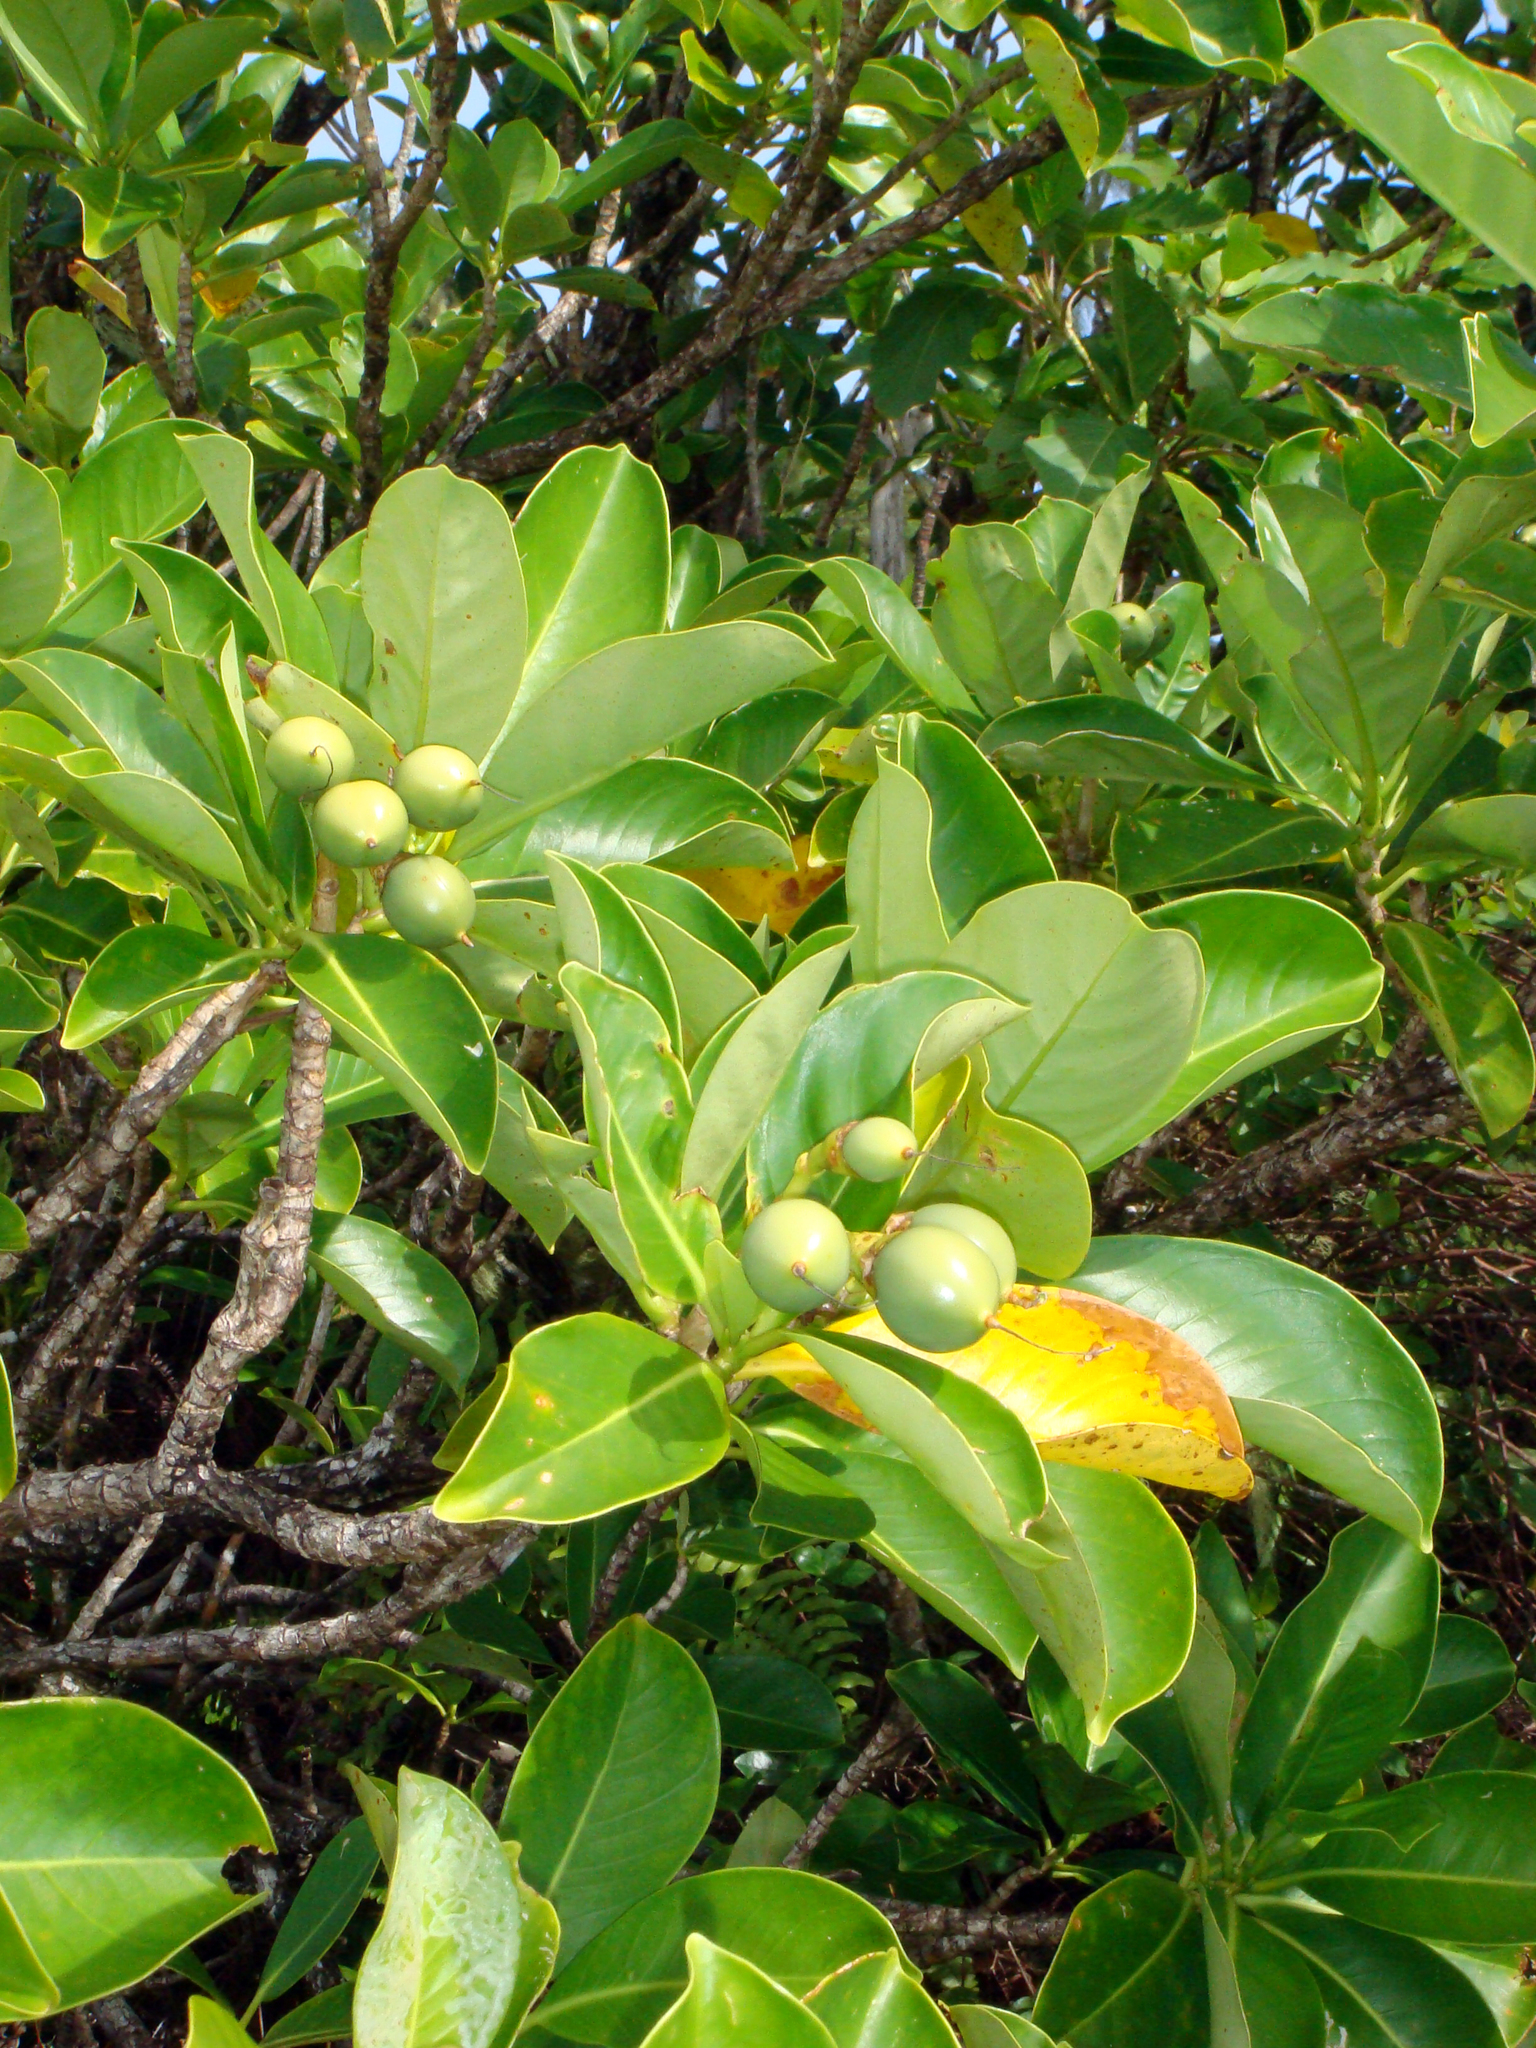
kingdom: Plantae
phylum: Tracheophyta
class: Magnoliopsida
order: Gentianales
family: Gentianaceae
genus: Fagraea
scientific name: Fagraea berteroana
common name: Cape jitta
